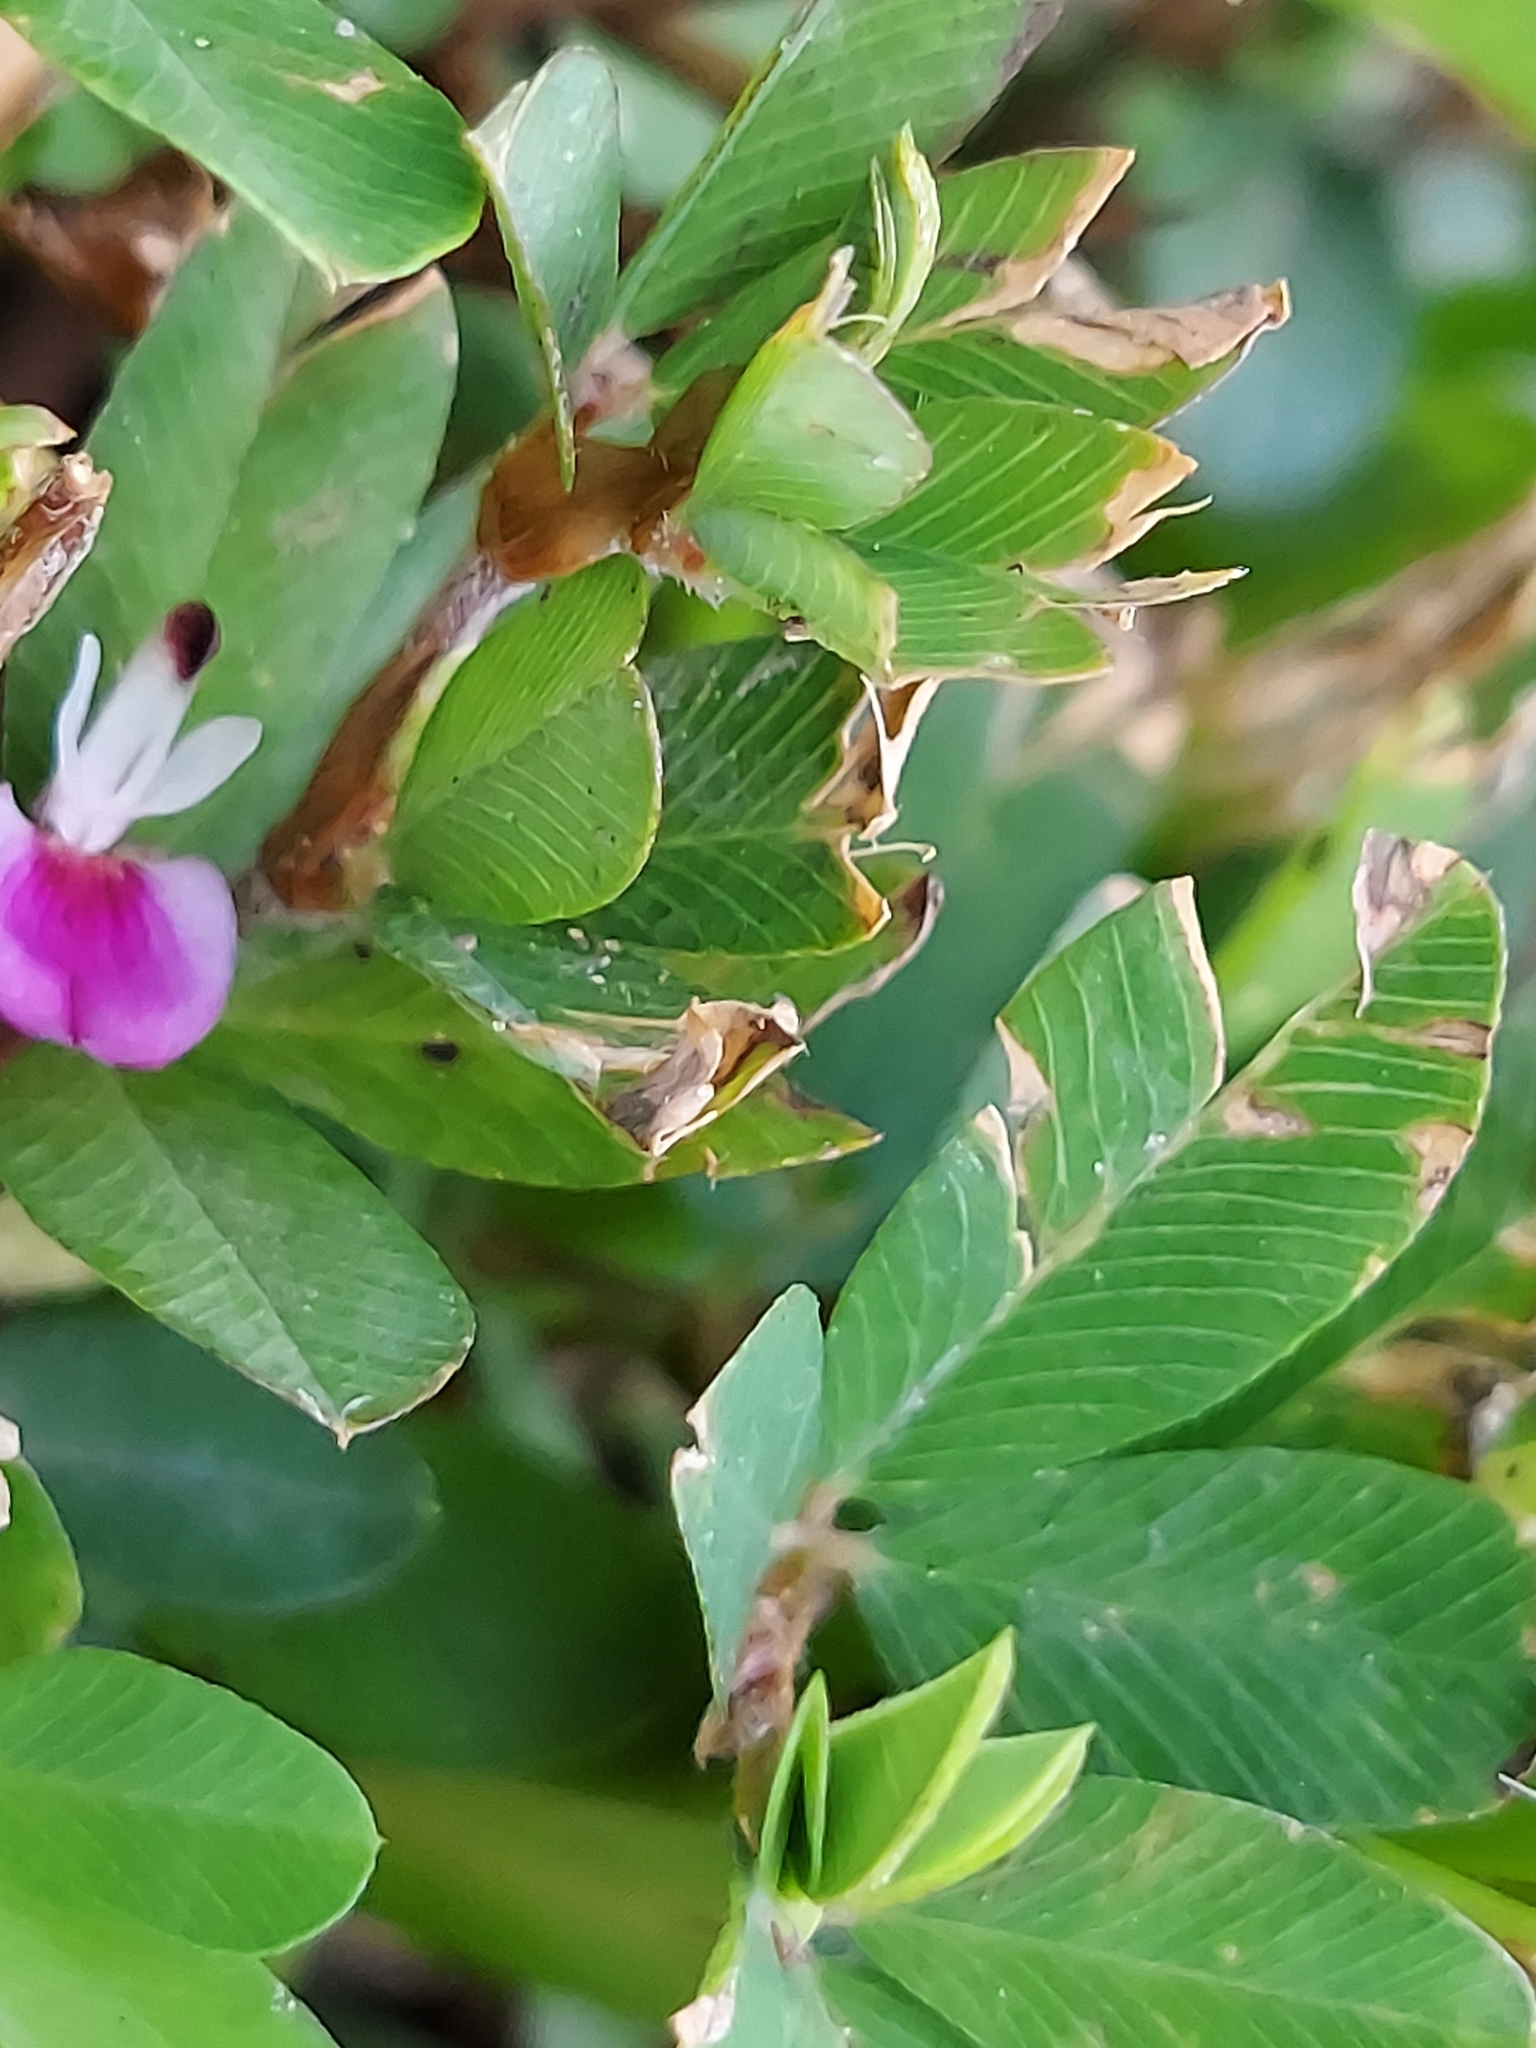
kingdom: Plantae
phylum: Tracheophyta
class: Magnoliopsida
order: Fabales
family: Fabaceae
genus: Kummerowia
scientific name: Kummerowia striata
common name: Japanese clover
